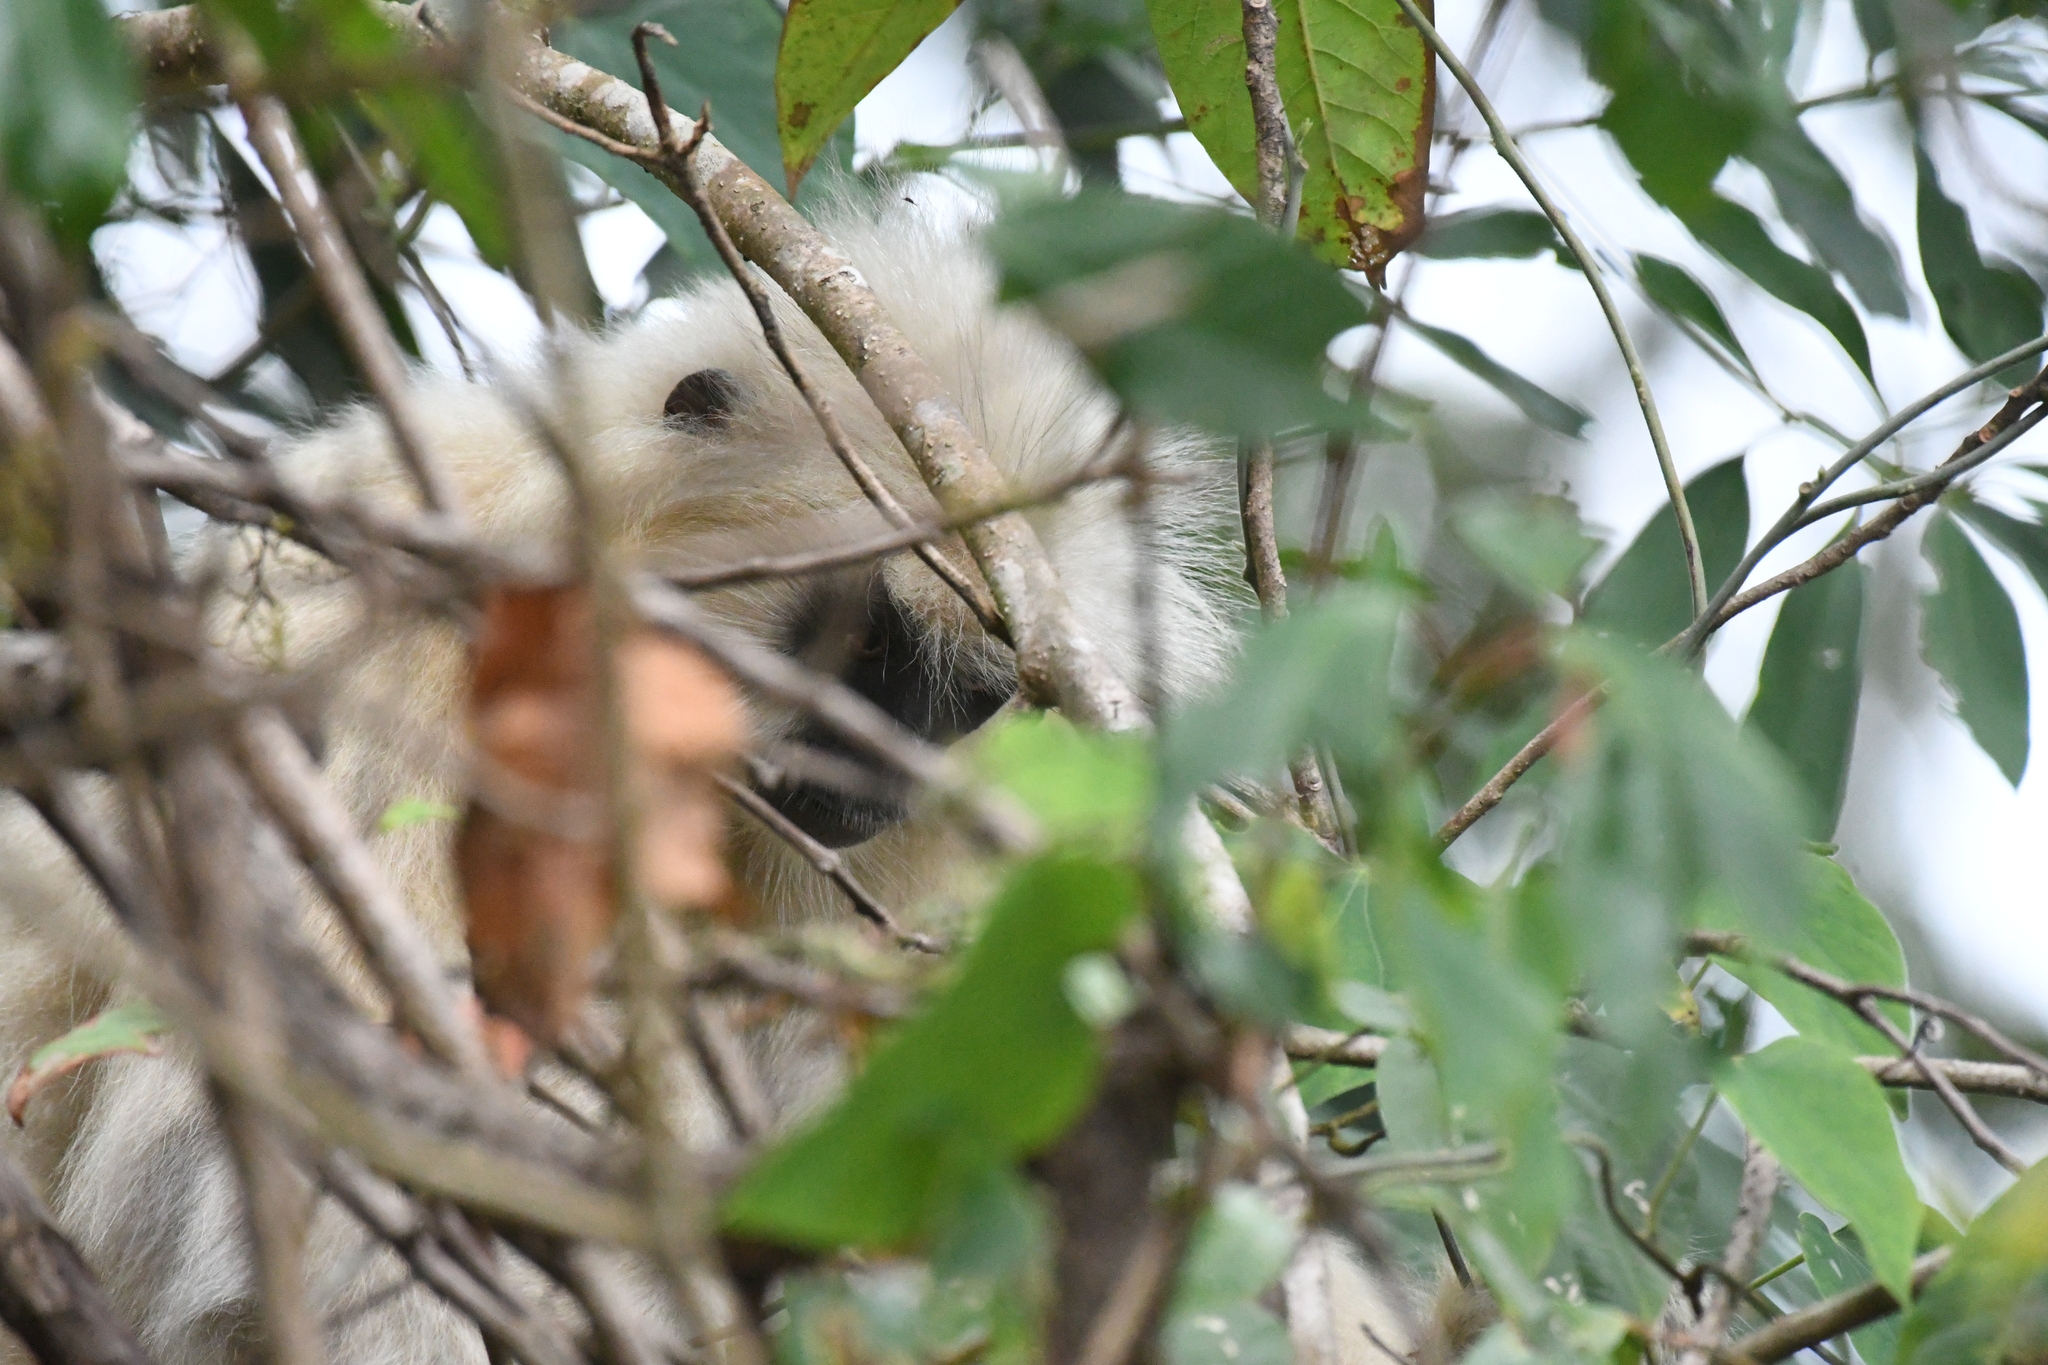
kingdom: Animalia
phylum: Chordata
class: Mammalia
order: Primates
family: Cercopithecidae
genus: Trachypithecus
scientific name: Trachypithecus geei
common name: Gee's golden langur
